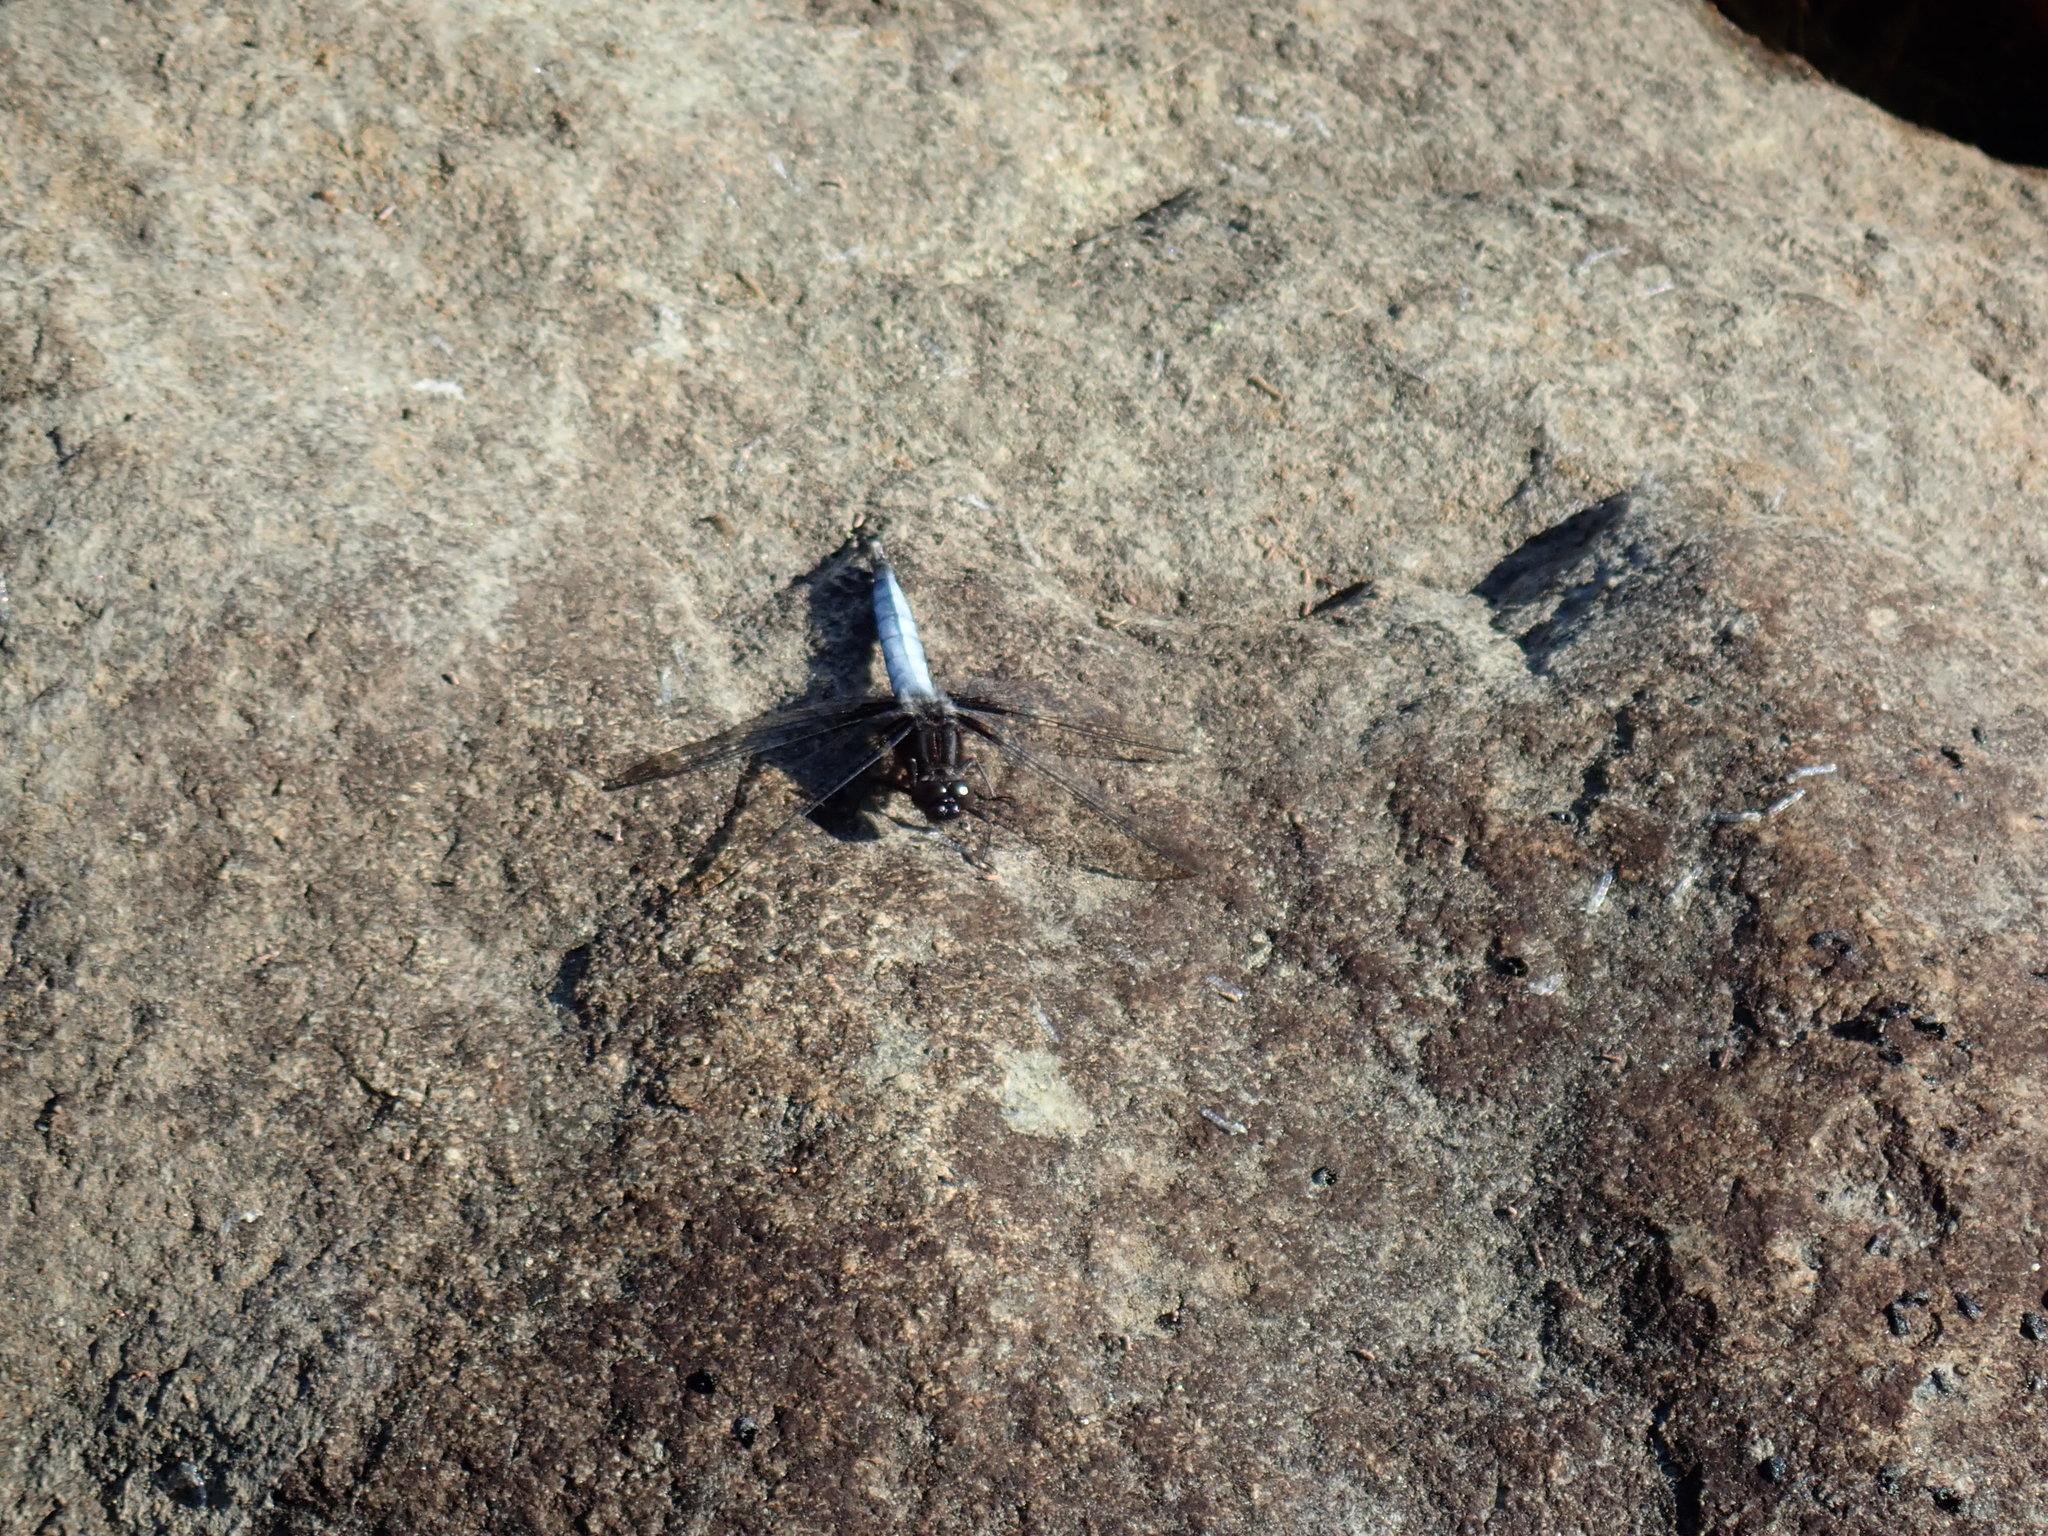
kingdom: Animalia
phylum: Arthropoda
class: Insecta
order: Odonata
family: Libellulidae
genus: Ladona
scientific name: Ladona exusta
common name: Libellule embrasée
